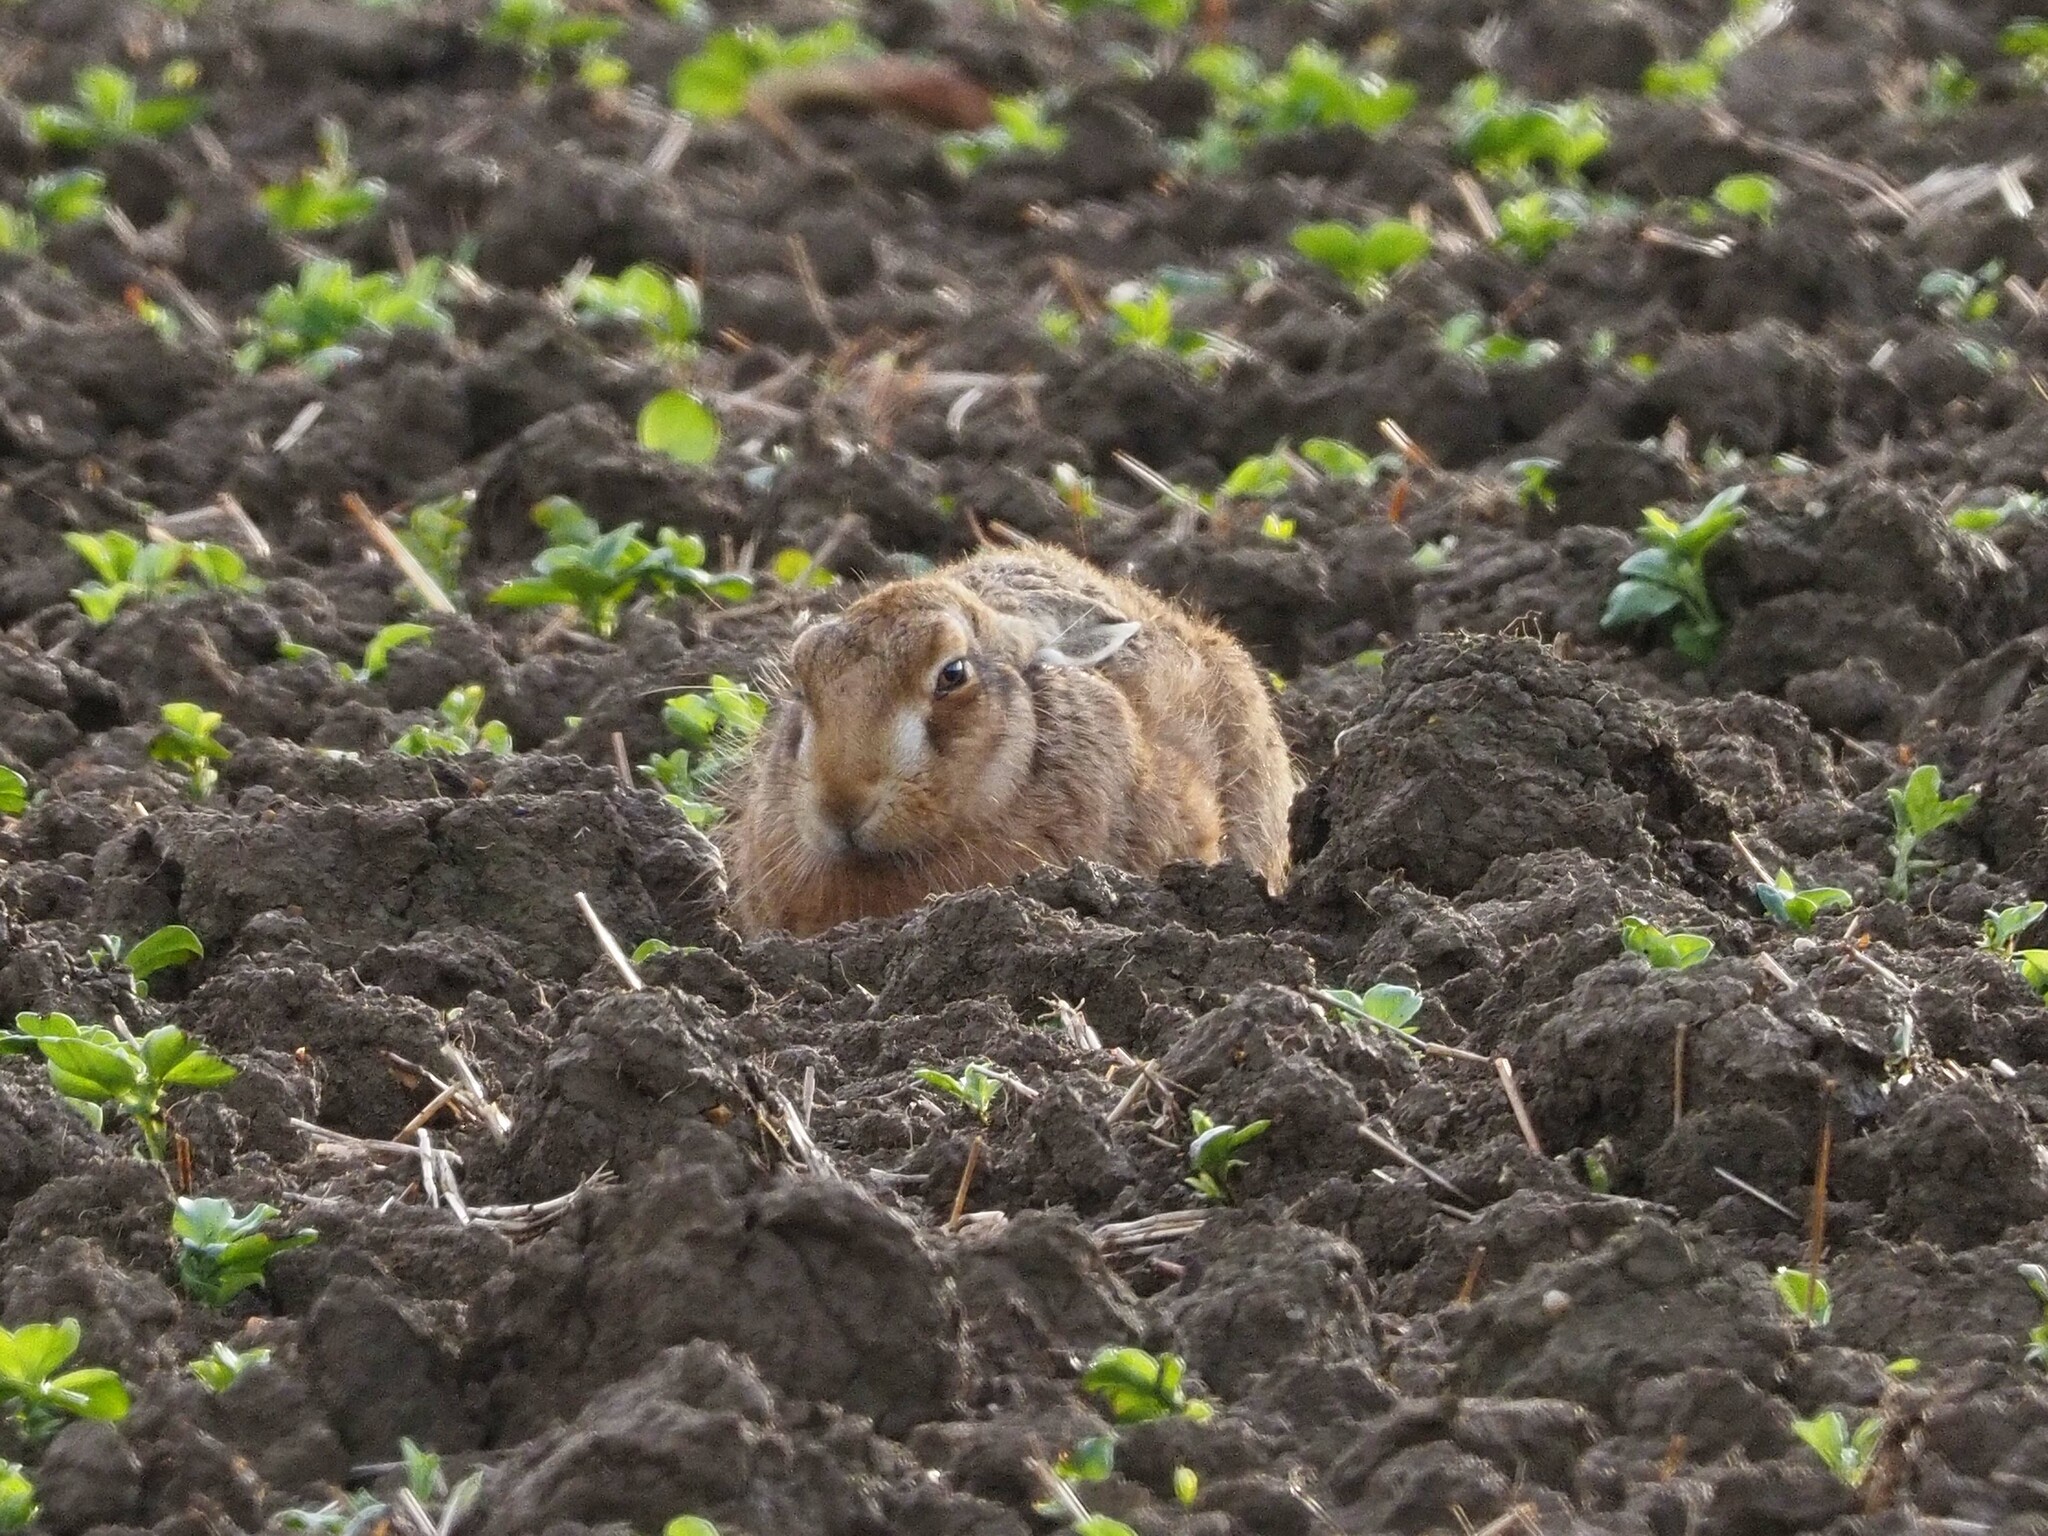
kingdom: Animalia
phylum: Chordata
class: Mammalia
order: Lagomorpha
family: Leporidae
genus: Lepus
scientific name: Lepus europaeus
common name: European hare
